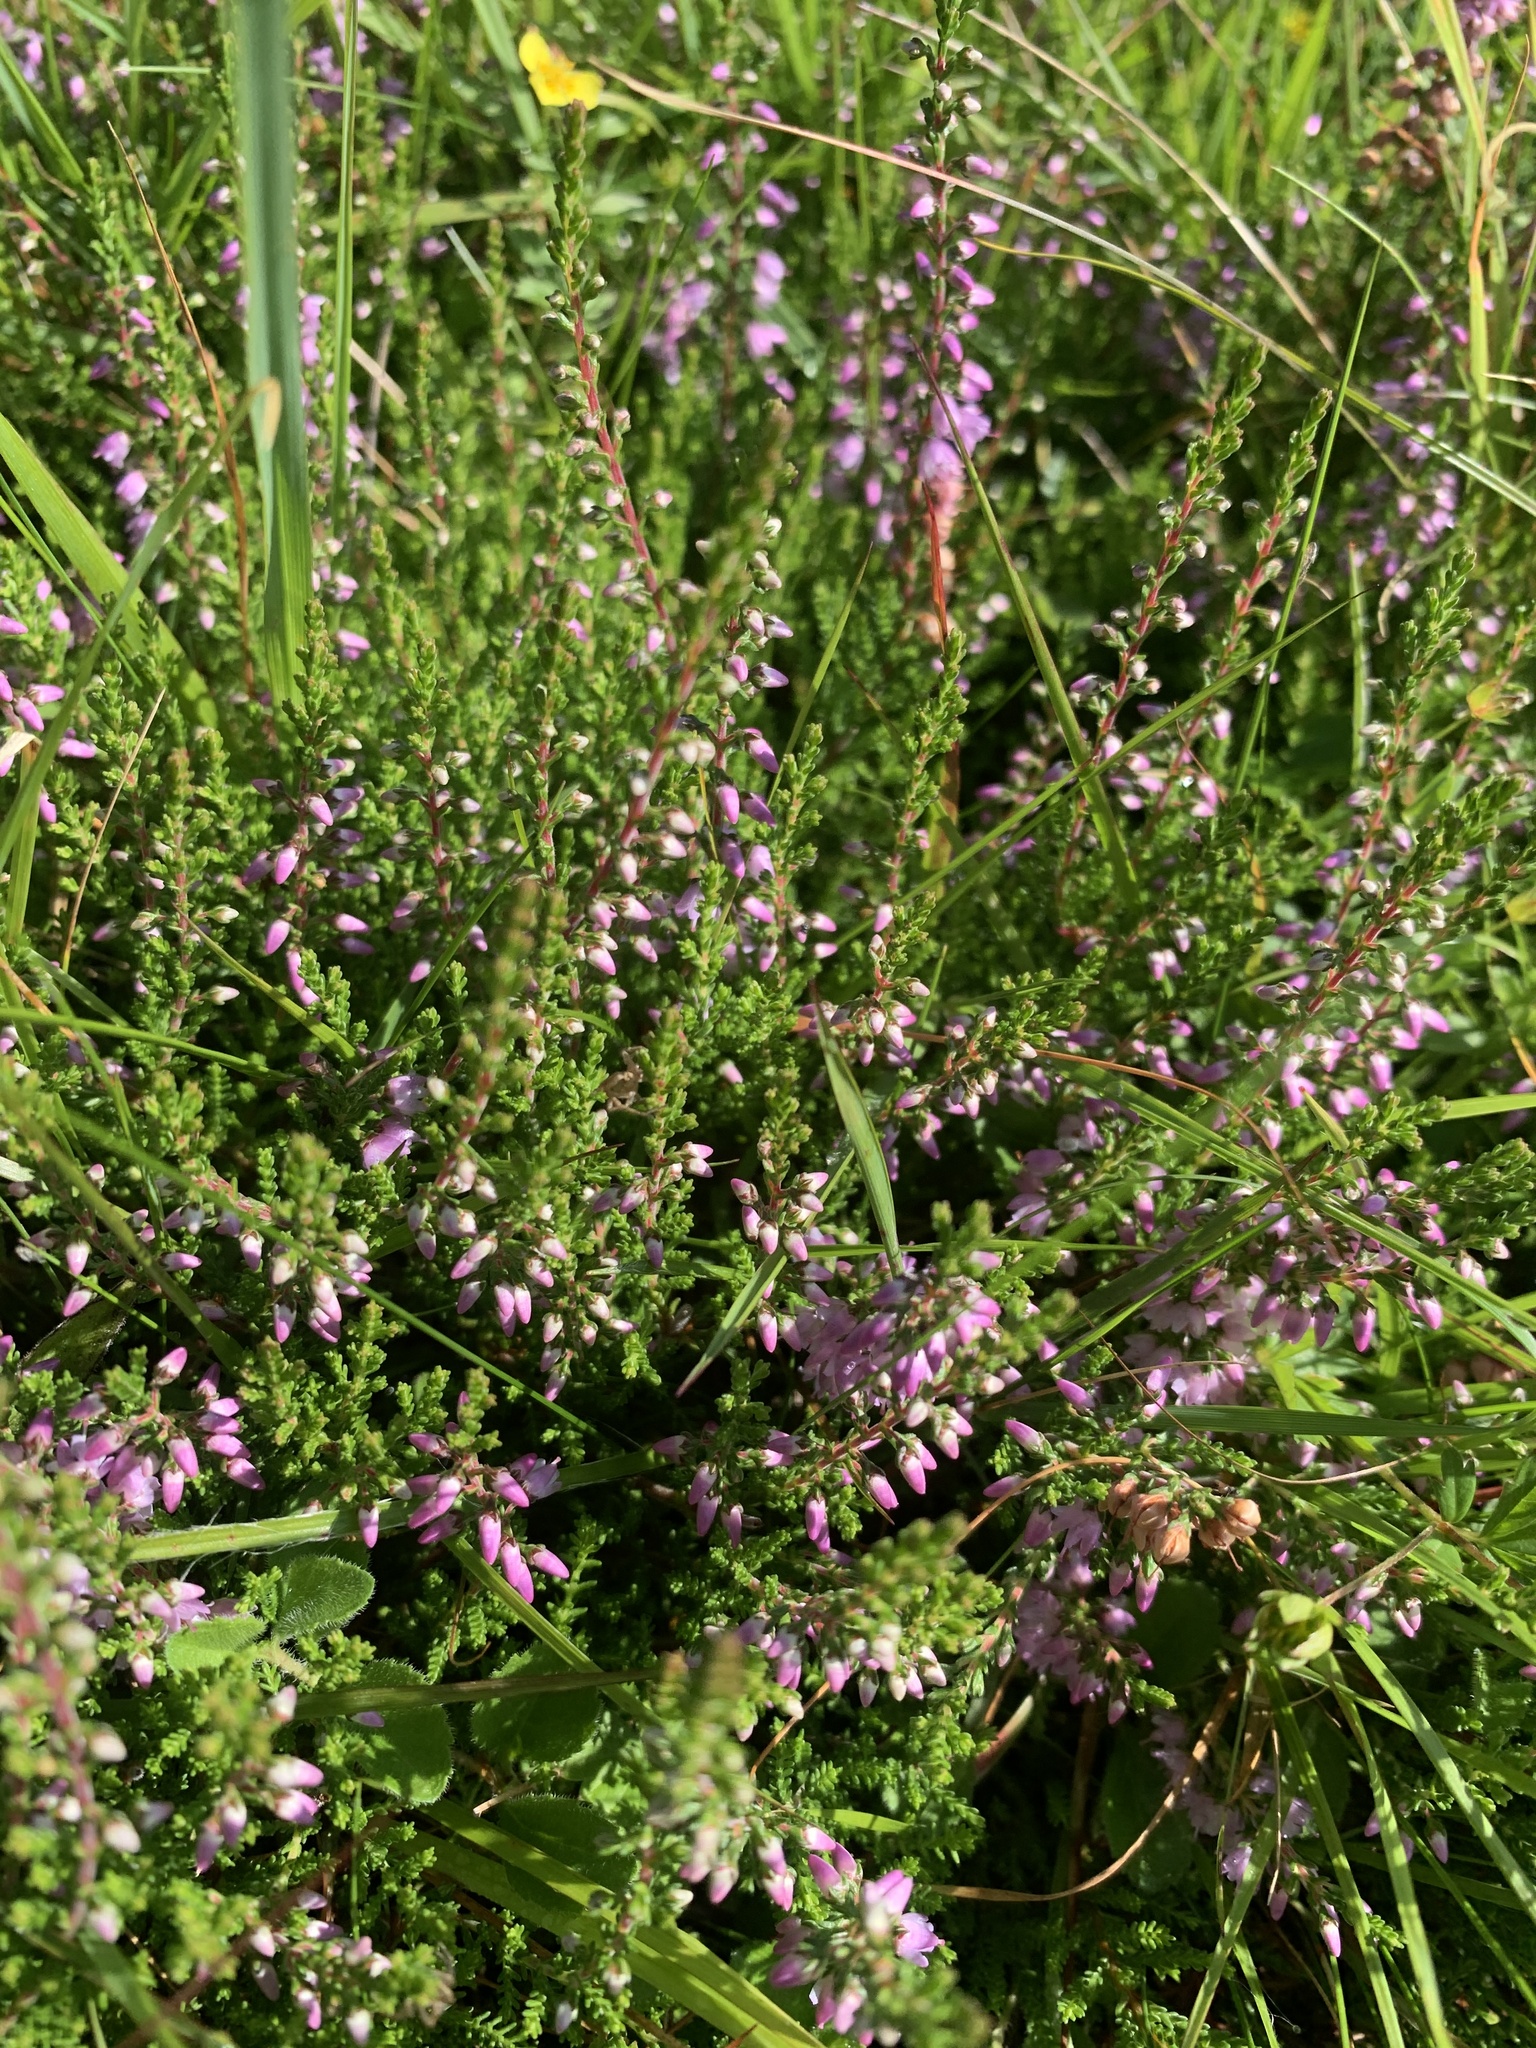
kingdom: Plantae
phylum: Tracheophyta
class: Magnoliopsida
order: Ericales
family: Ericaceae
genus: Calluna
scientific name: Calluna vulgaris
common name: Heather
